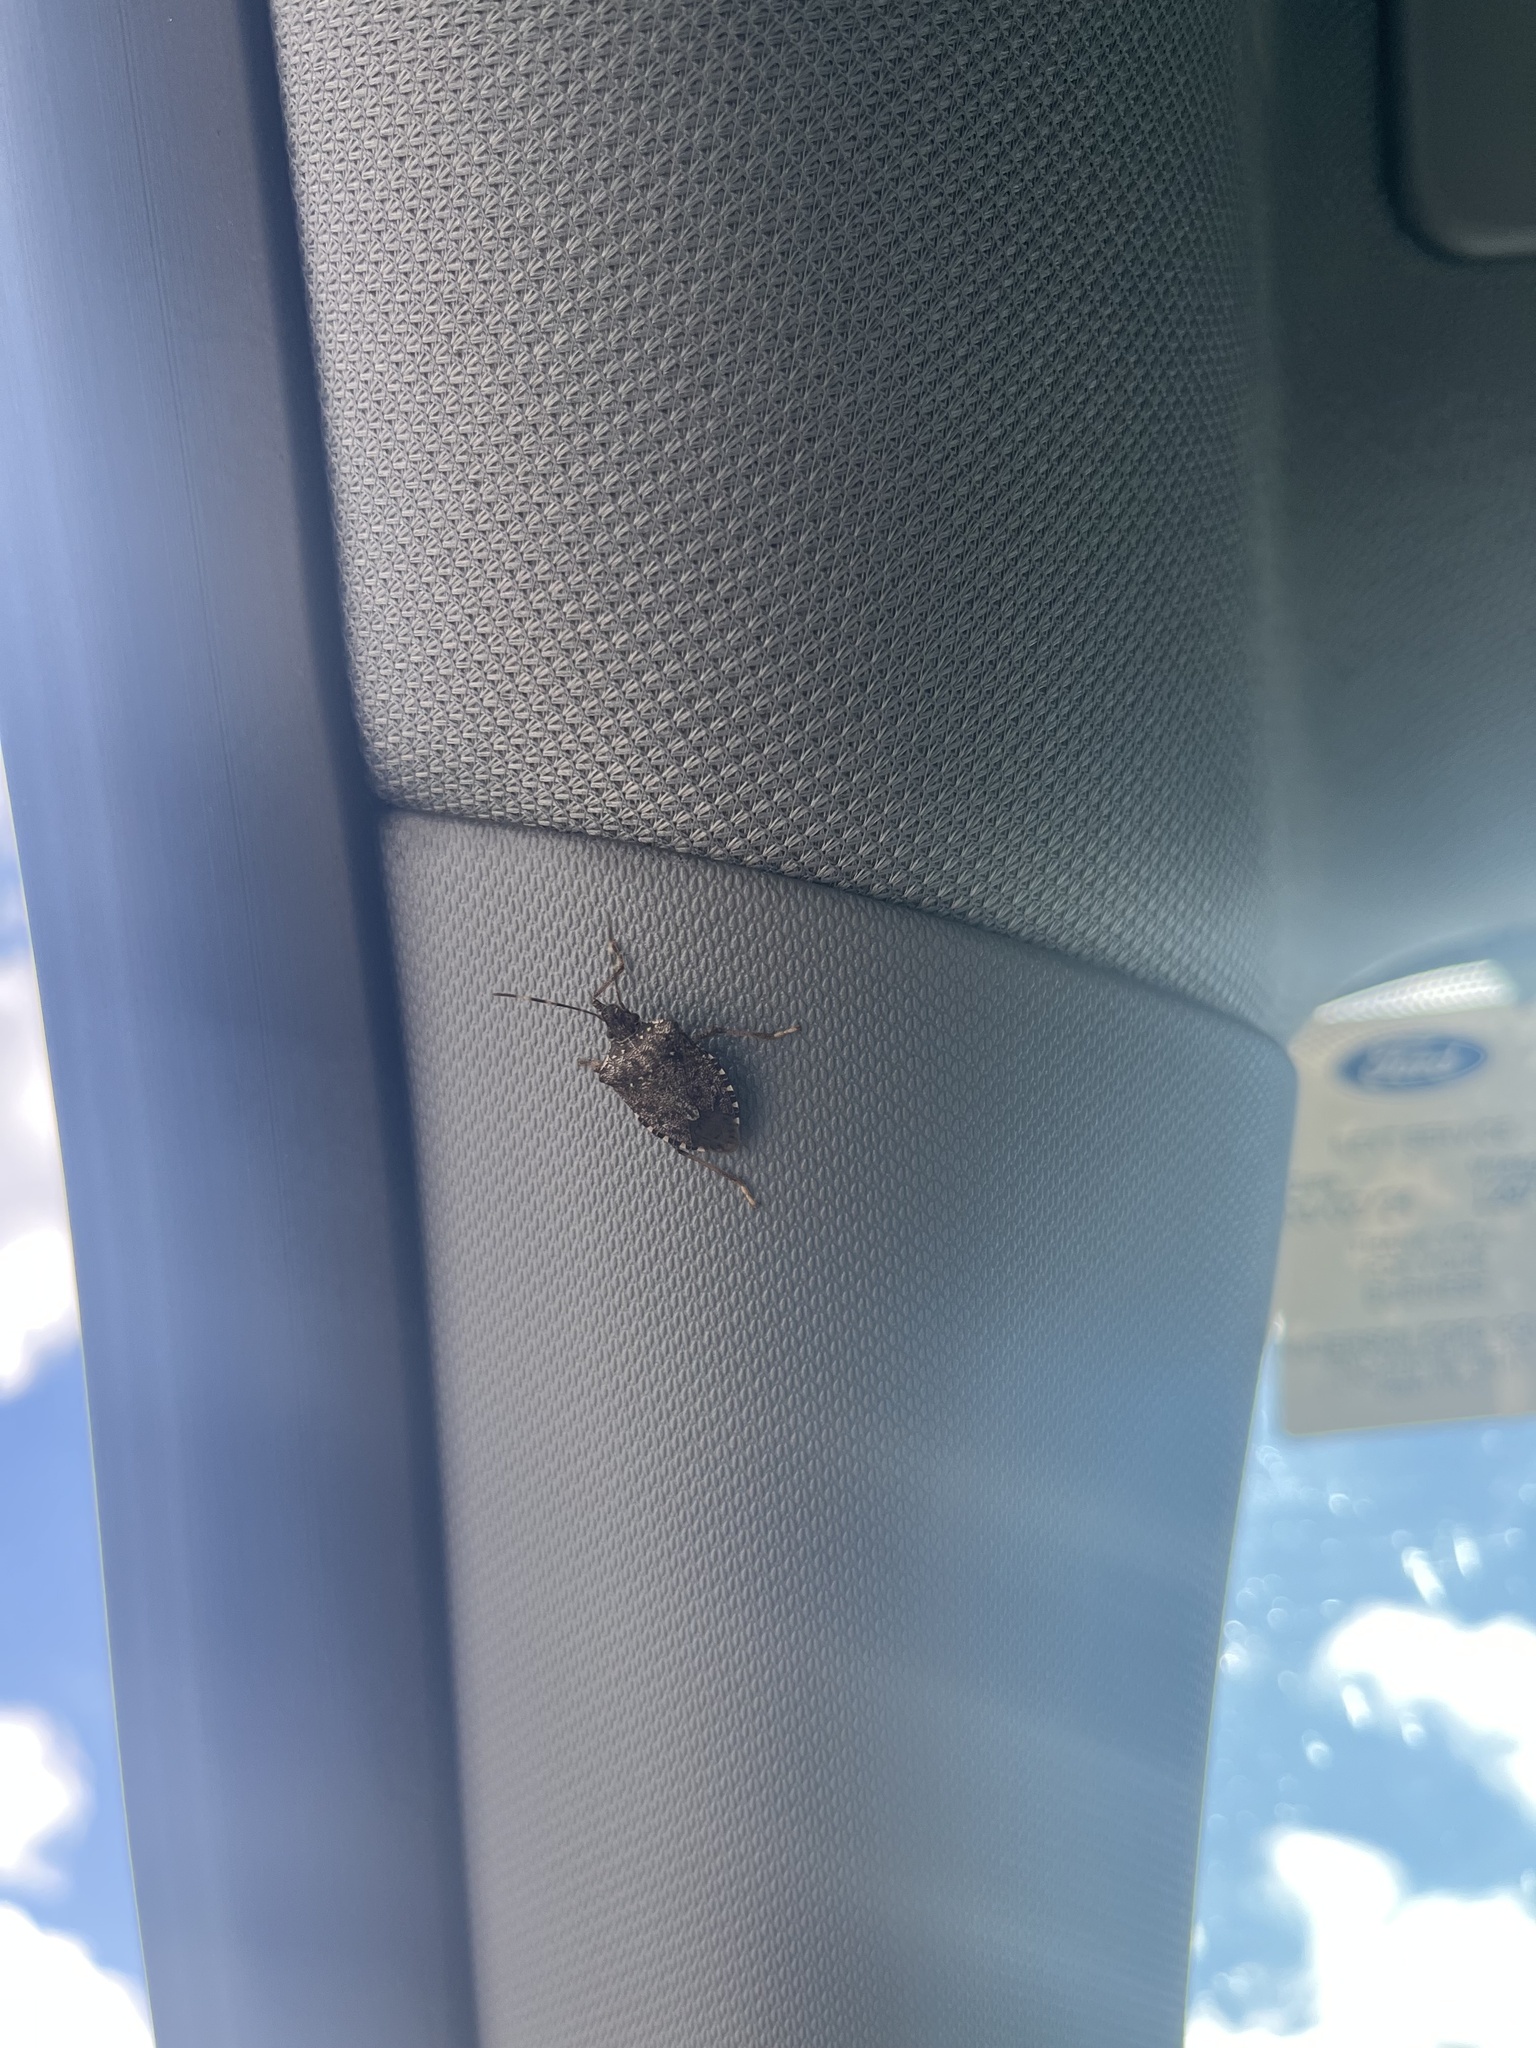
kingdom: Animalia
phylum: Arthropoda
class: Insecta
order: Hemiptera
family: Pentatomidae
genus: Halyomorpha
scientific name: Halyomorpha halys
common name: Brown marmorated stink bug
